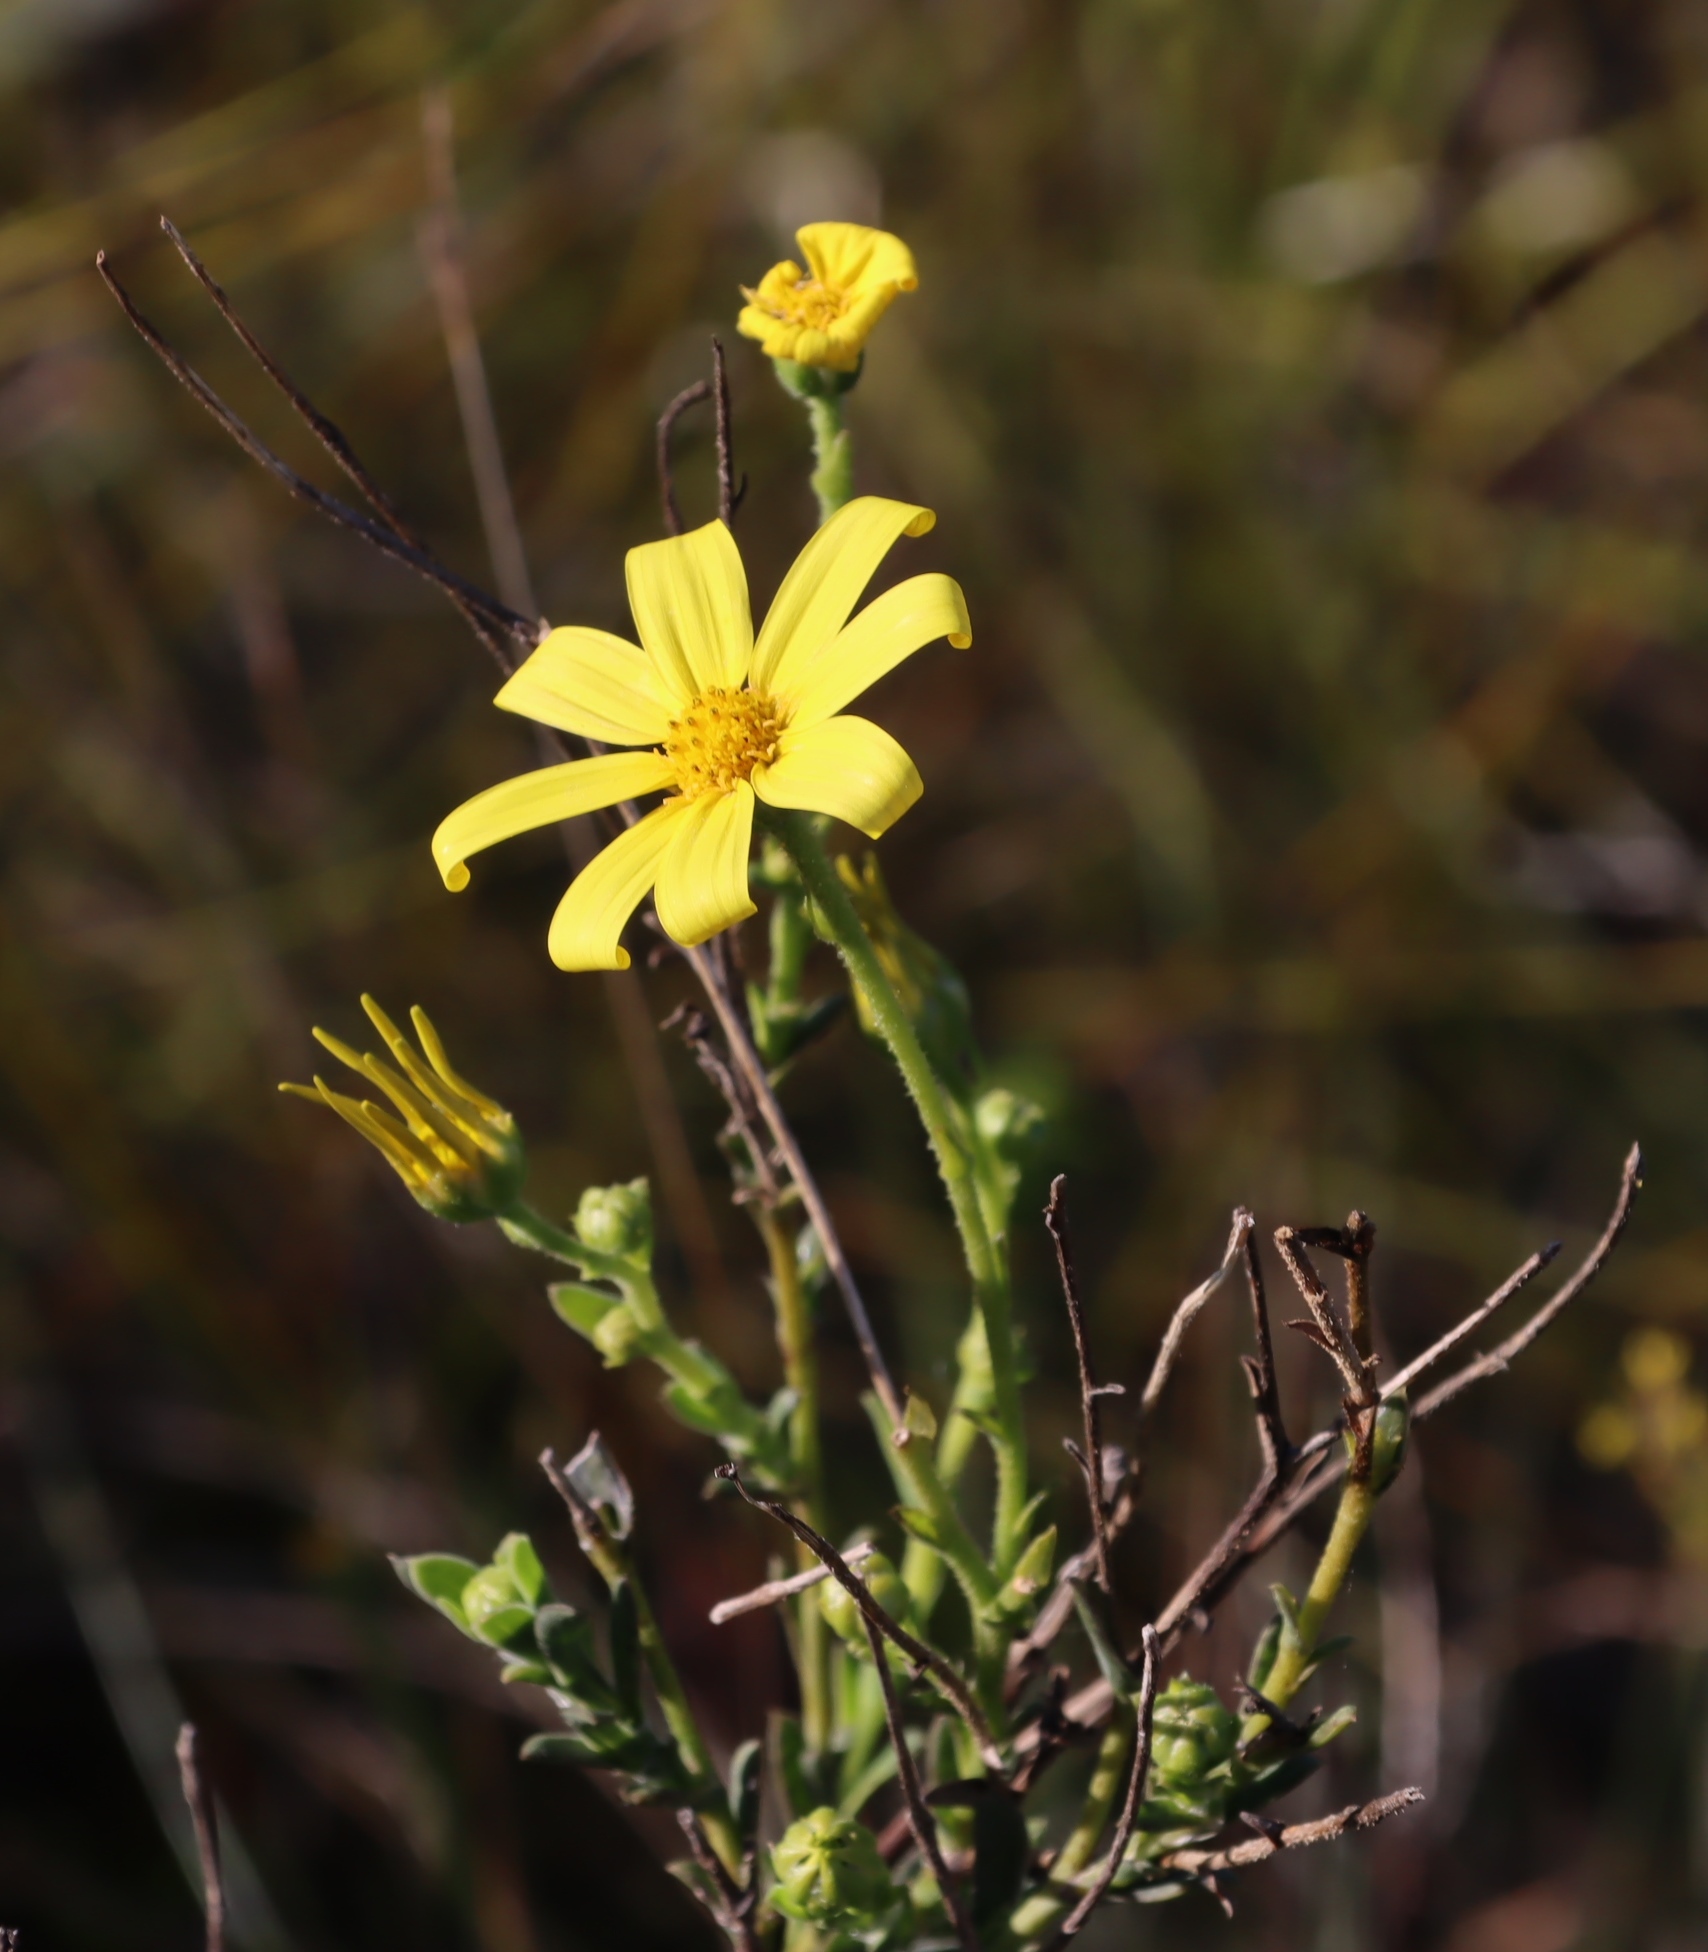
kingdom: Plantae
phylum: Tracheophyta
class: Magnoliopsida
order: Asterales
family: Asteraceae
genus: Osteospermum
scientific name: Osteospermum polygaloides
